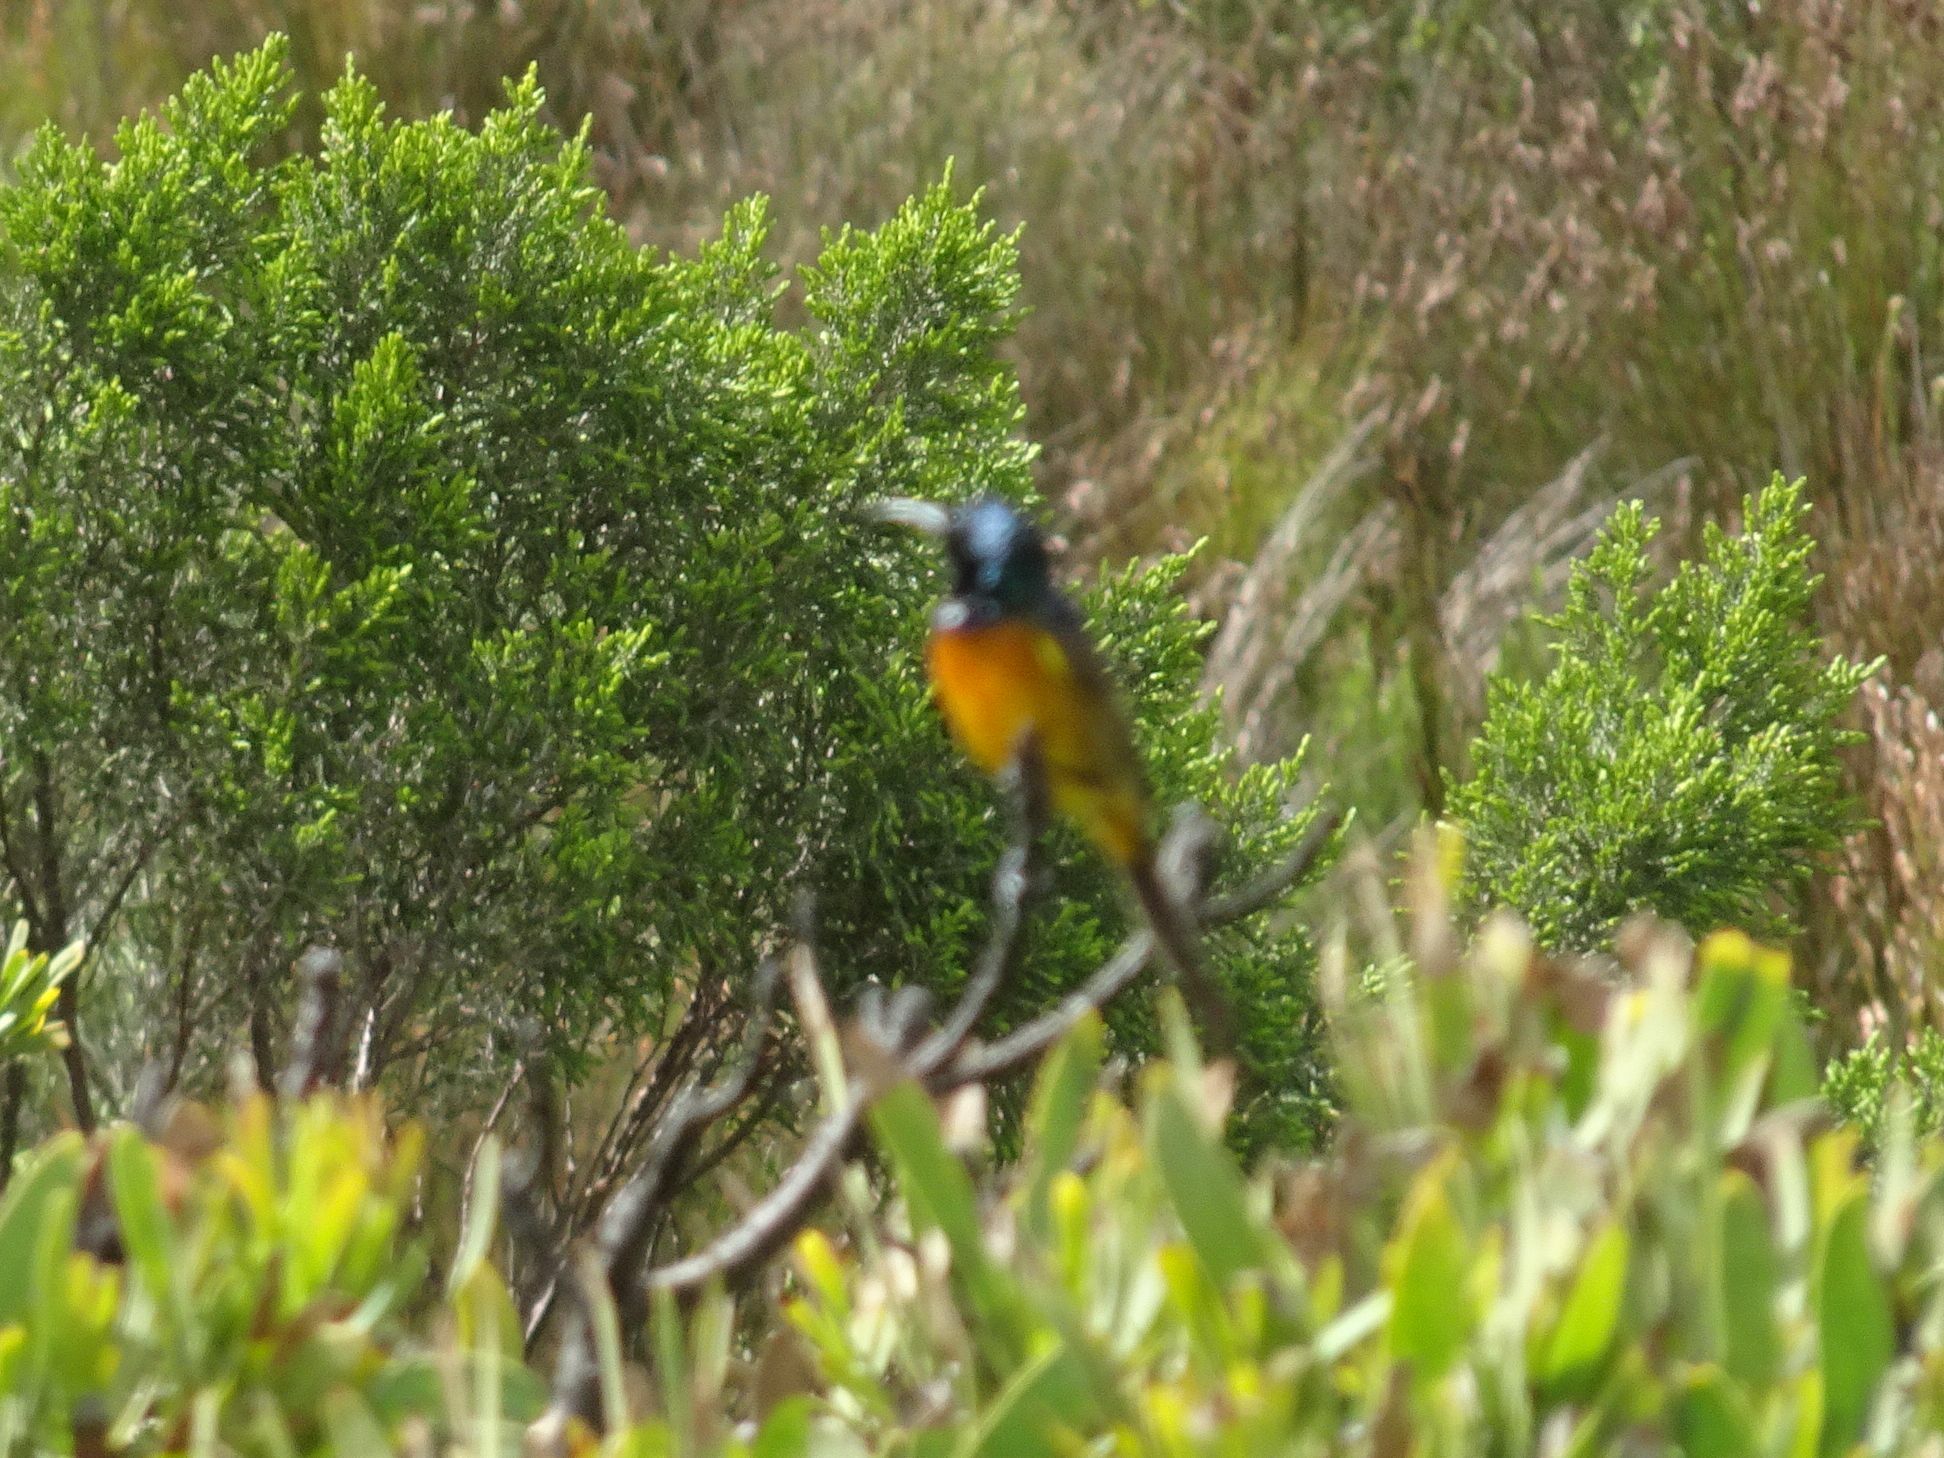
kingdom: Animalia
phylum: Chordata
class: Aves
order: Passeriformes
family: Nectariniidae
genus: Anthobaphes
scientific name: Anthobaphes violacea
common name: Orange-breasted sunbird
